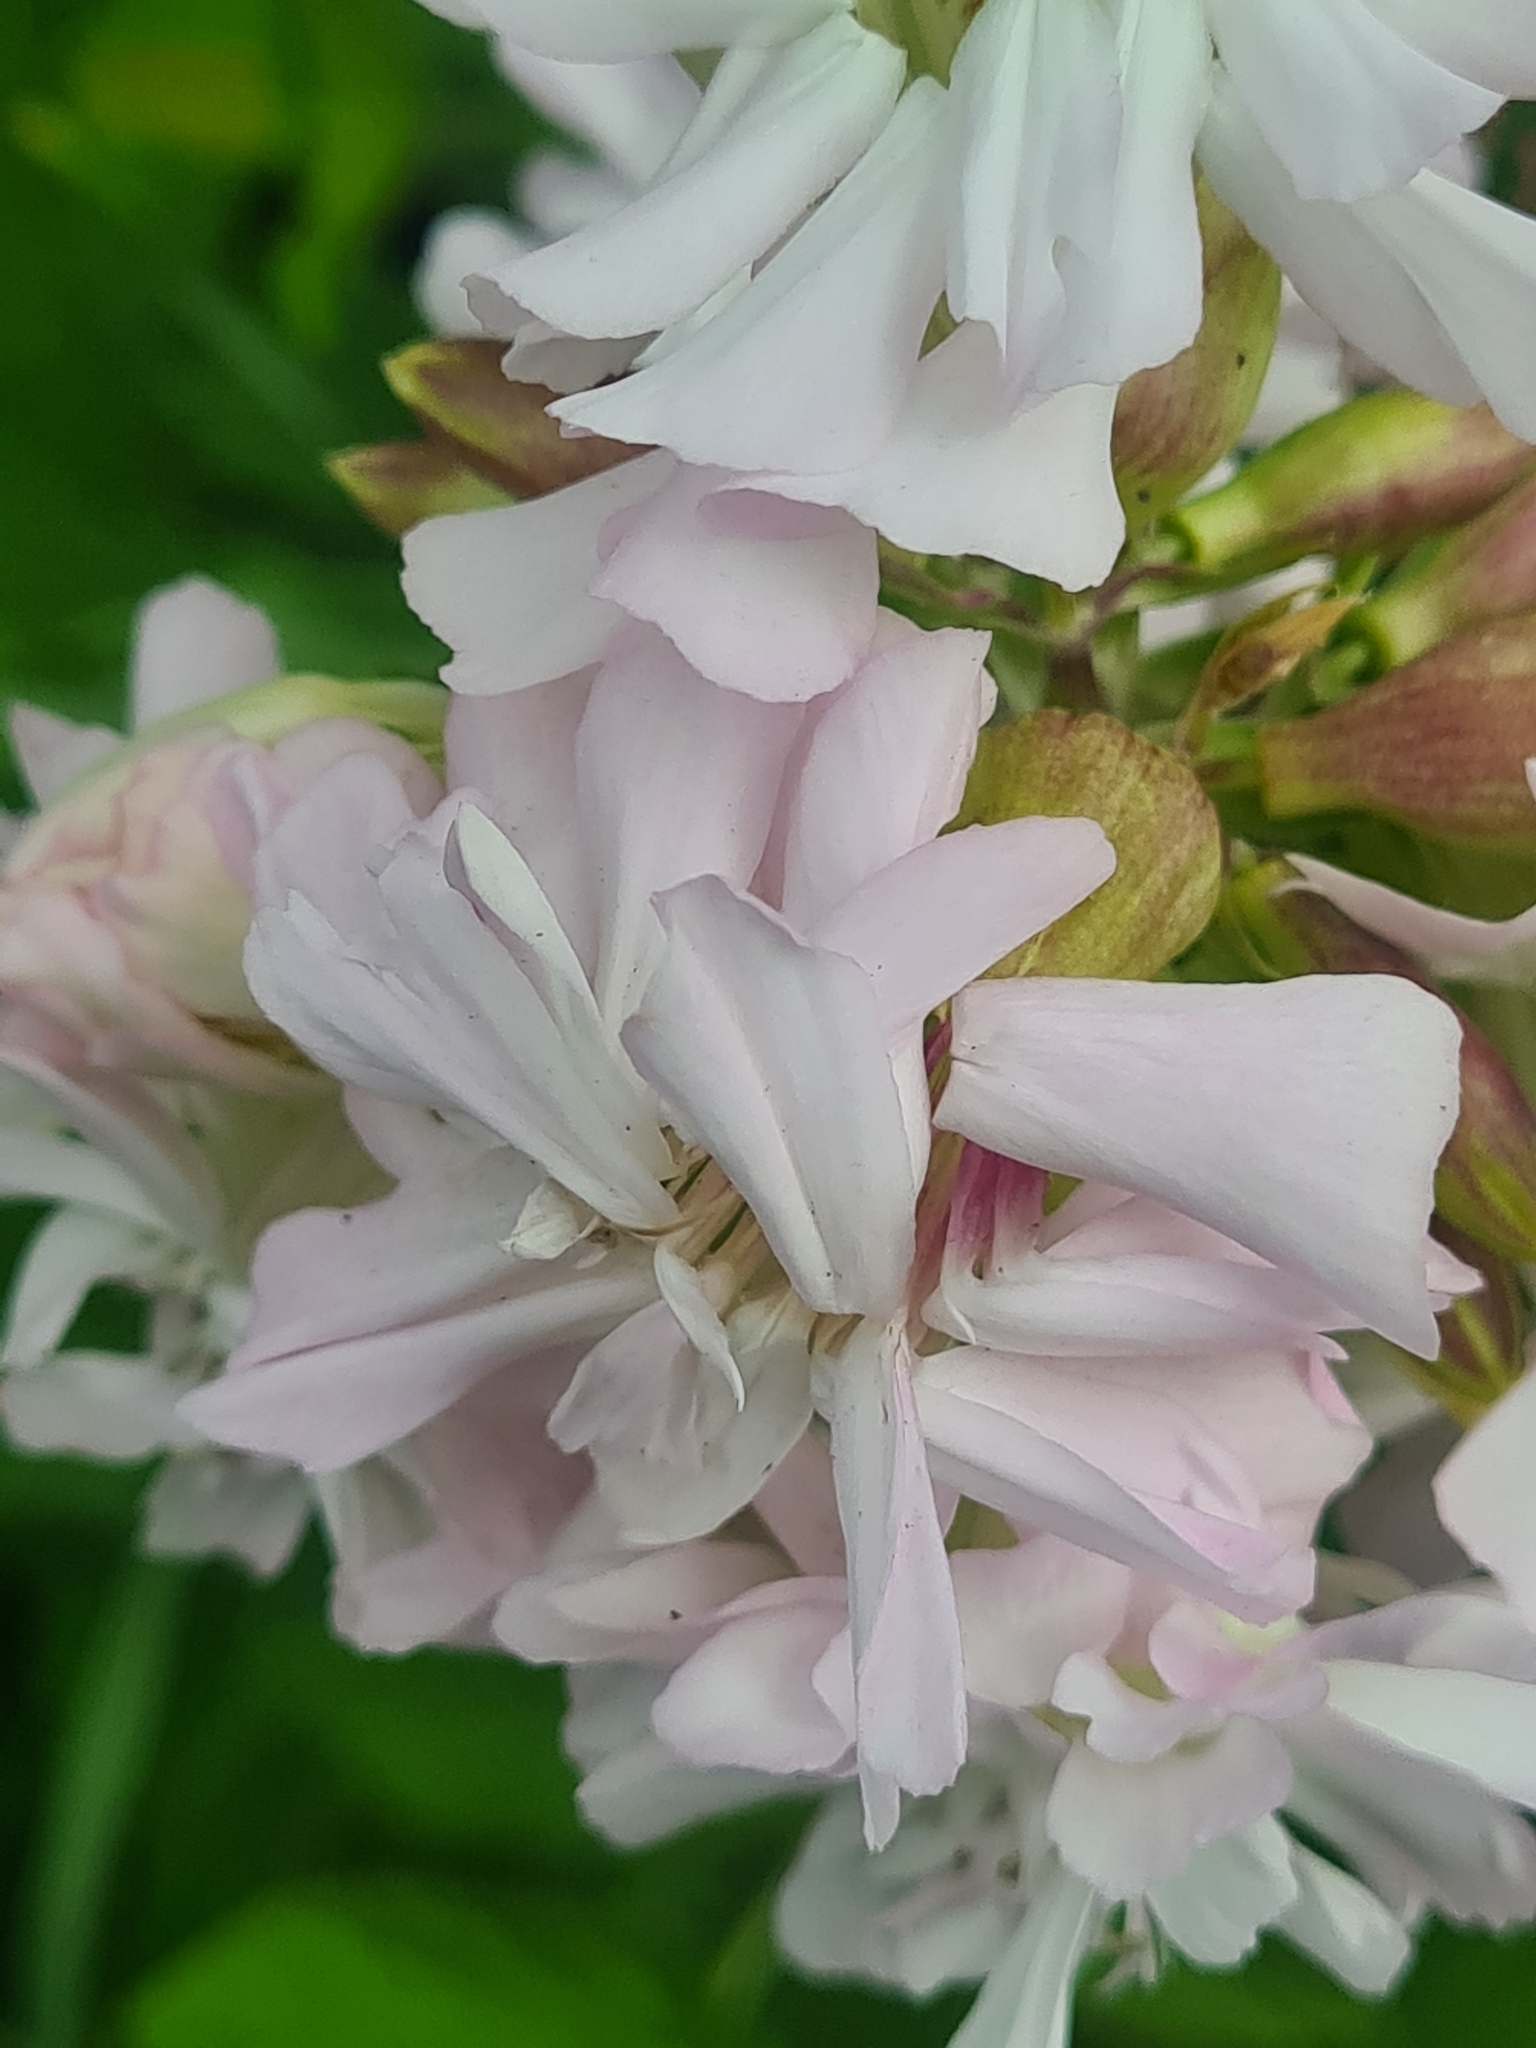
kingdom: Plantae
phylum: Tracheophyta
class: Magnoliopsida
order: Caryophyllales
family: Caryophyllaceae
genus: Saponaria
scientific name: Saponaria officinalis
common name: Soapwort
